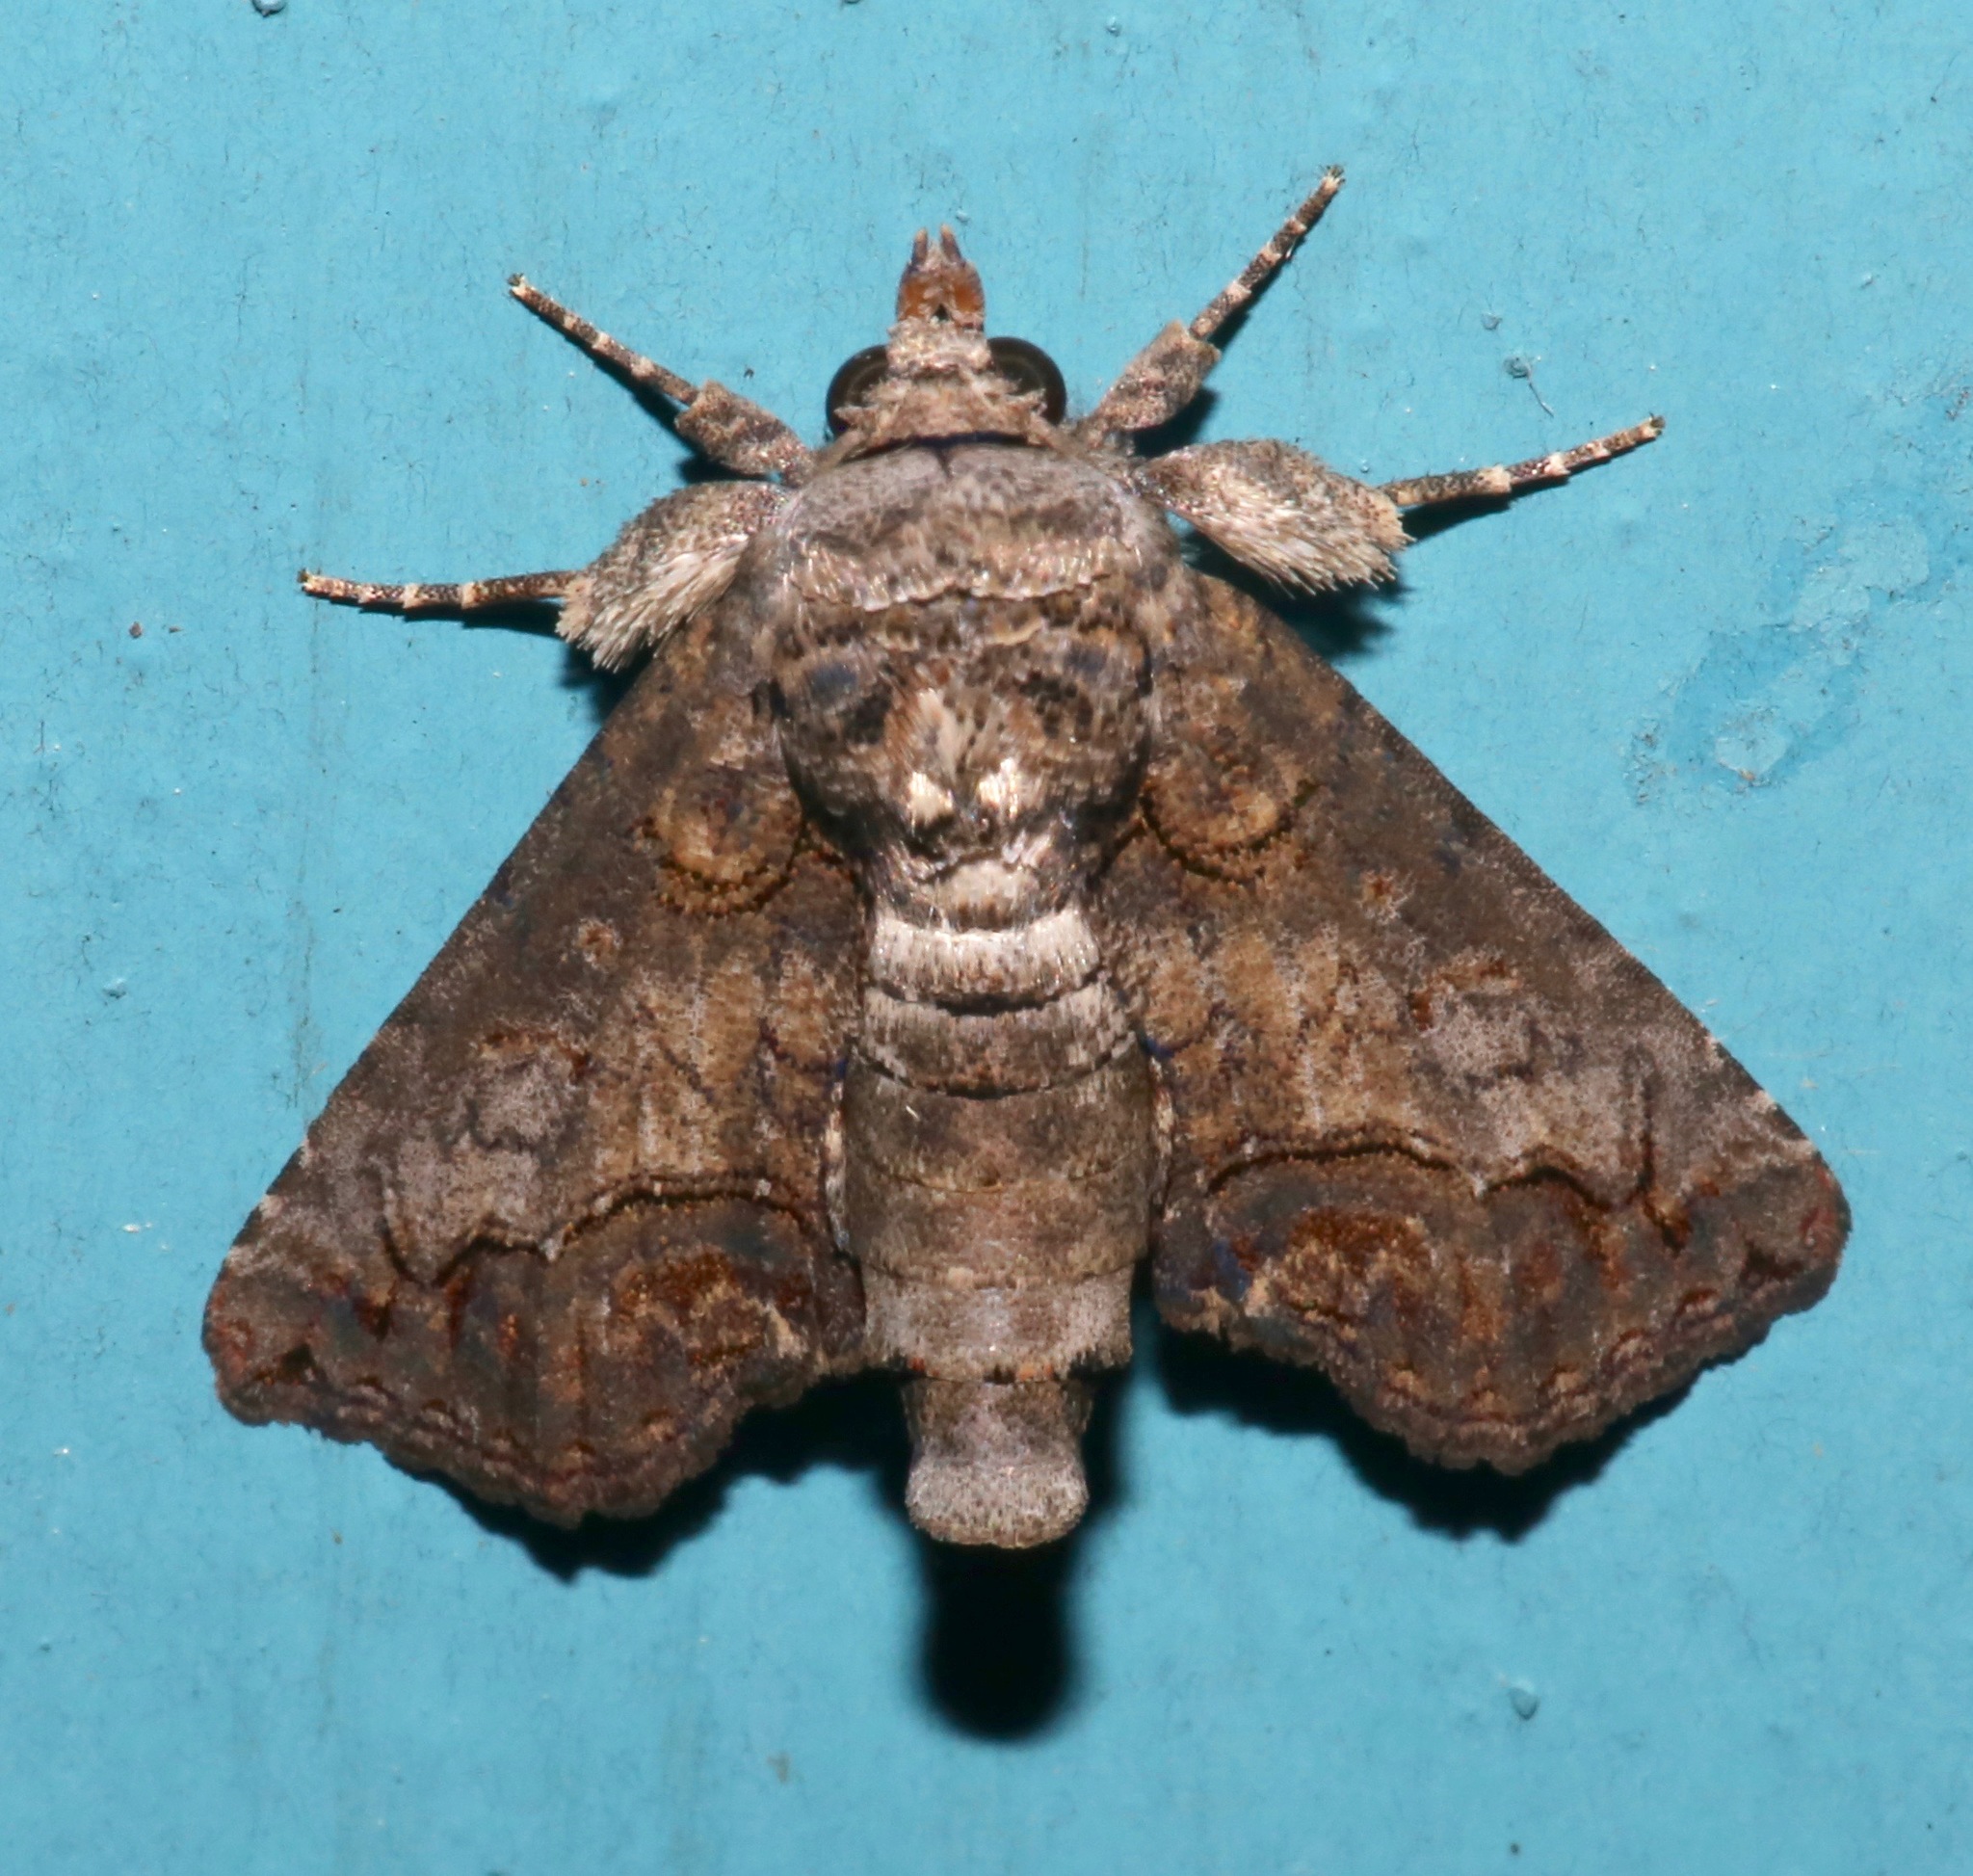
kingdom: Animalia
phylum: Arthropoda
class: Insecta
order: Lepidoptera
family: Euteliidae
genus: Paectes
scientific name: Paectes abrostoloides
